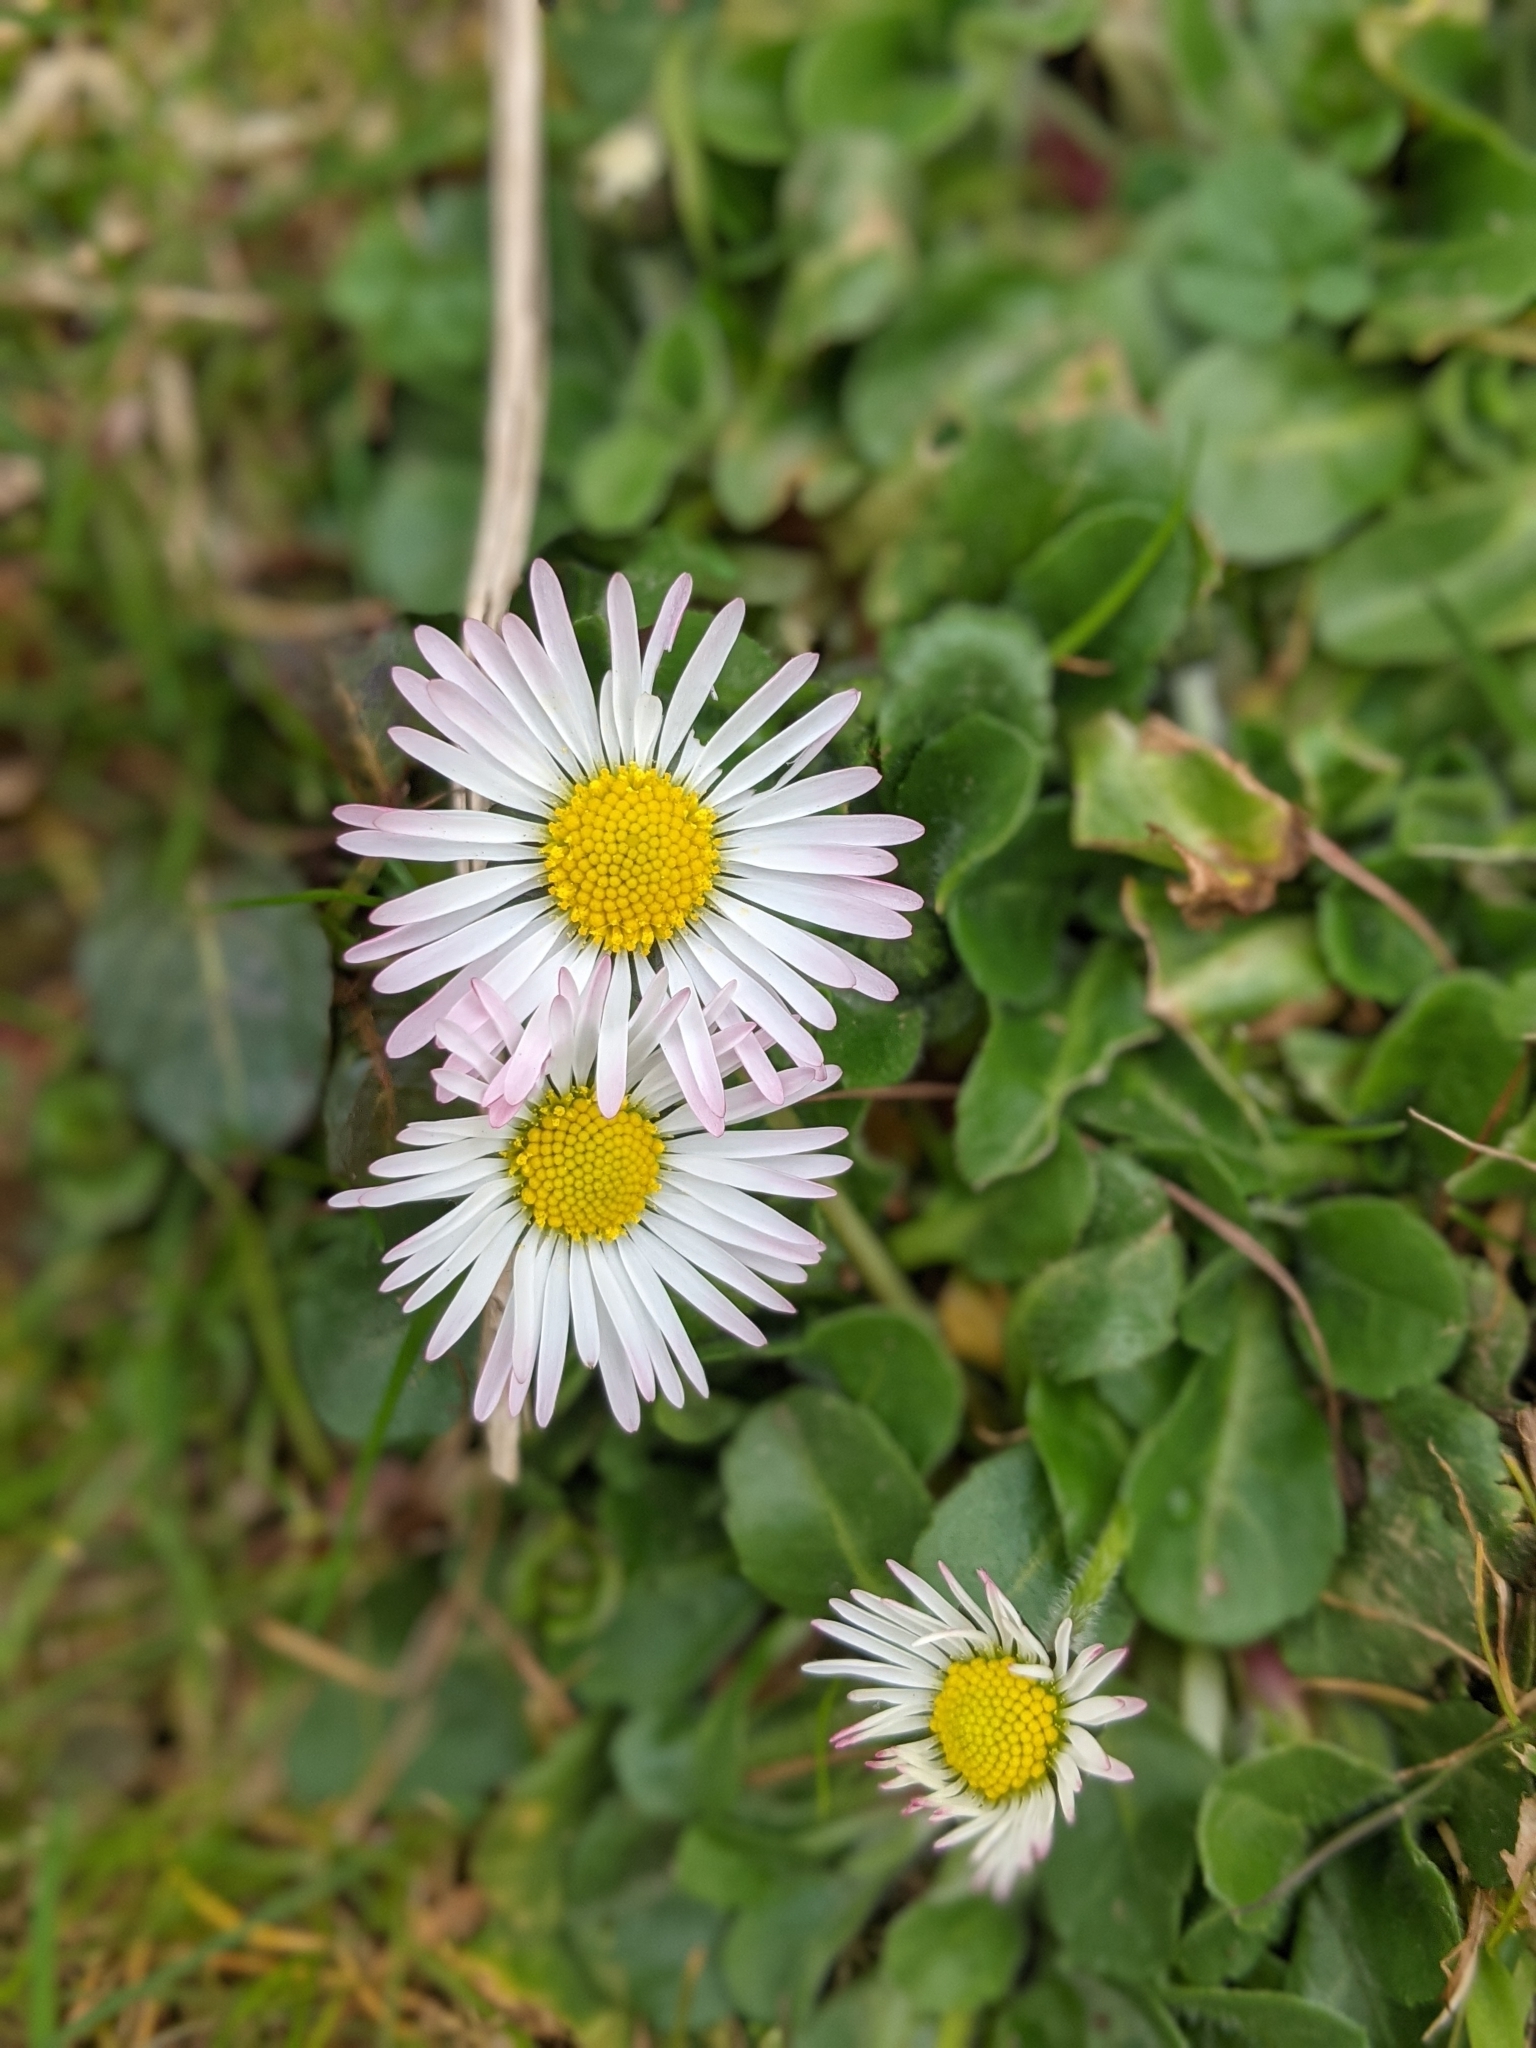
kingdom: Plantae
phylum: Tracheophyta
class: Magnoliopsida
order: Asterales
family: Asteraceae
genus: Bellis
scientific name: Bellis perennis
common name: Lawndaisy
